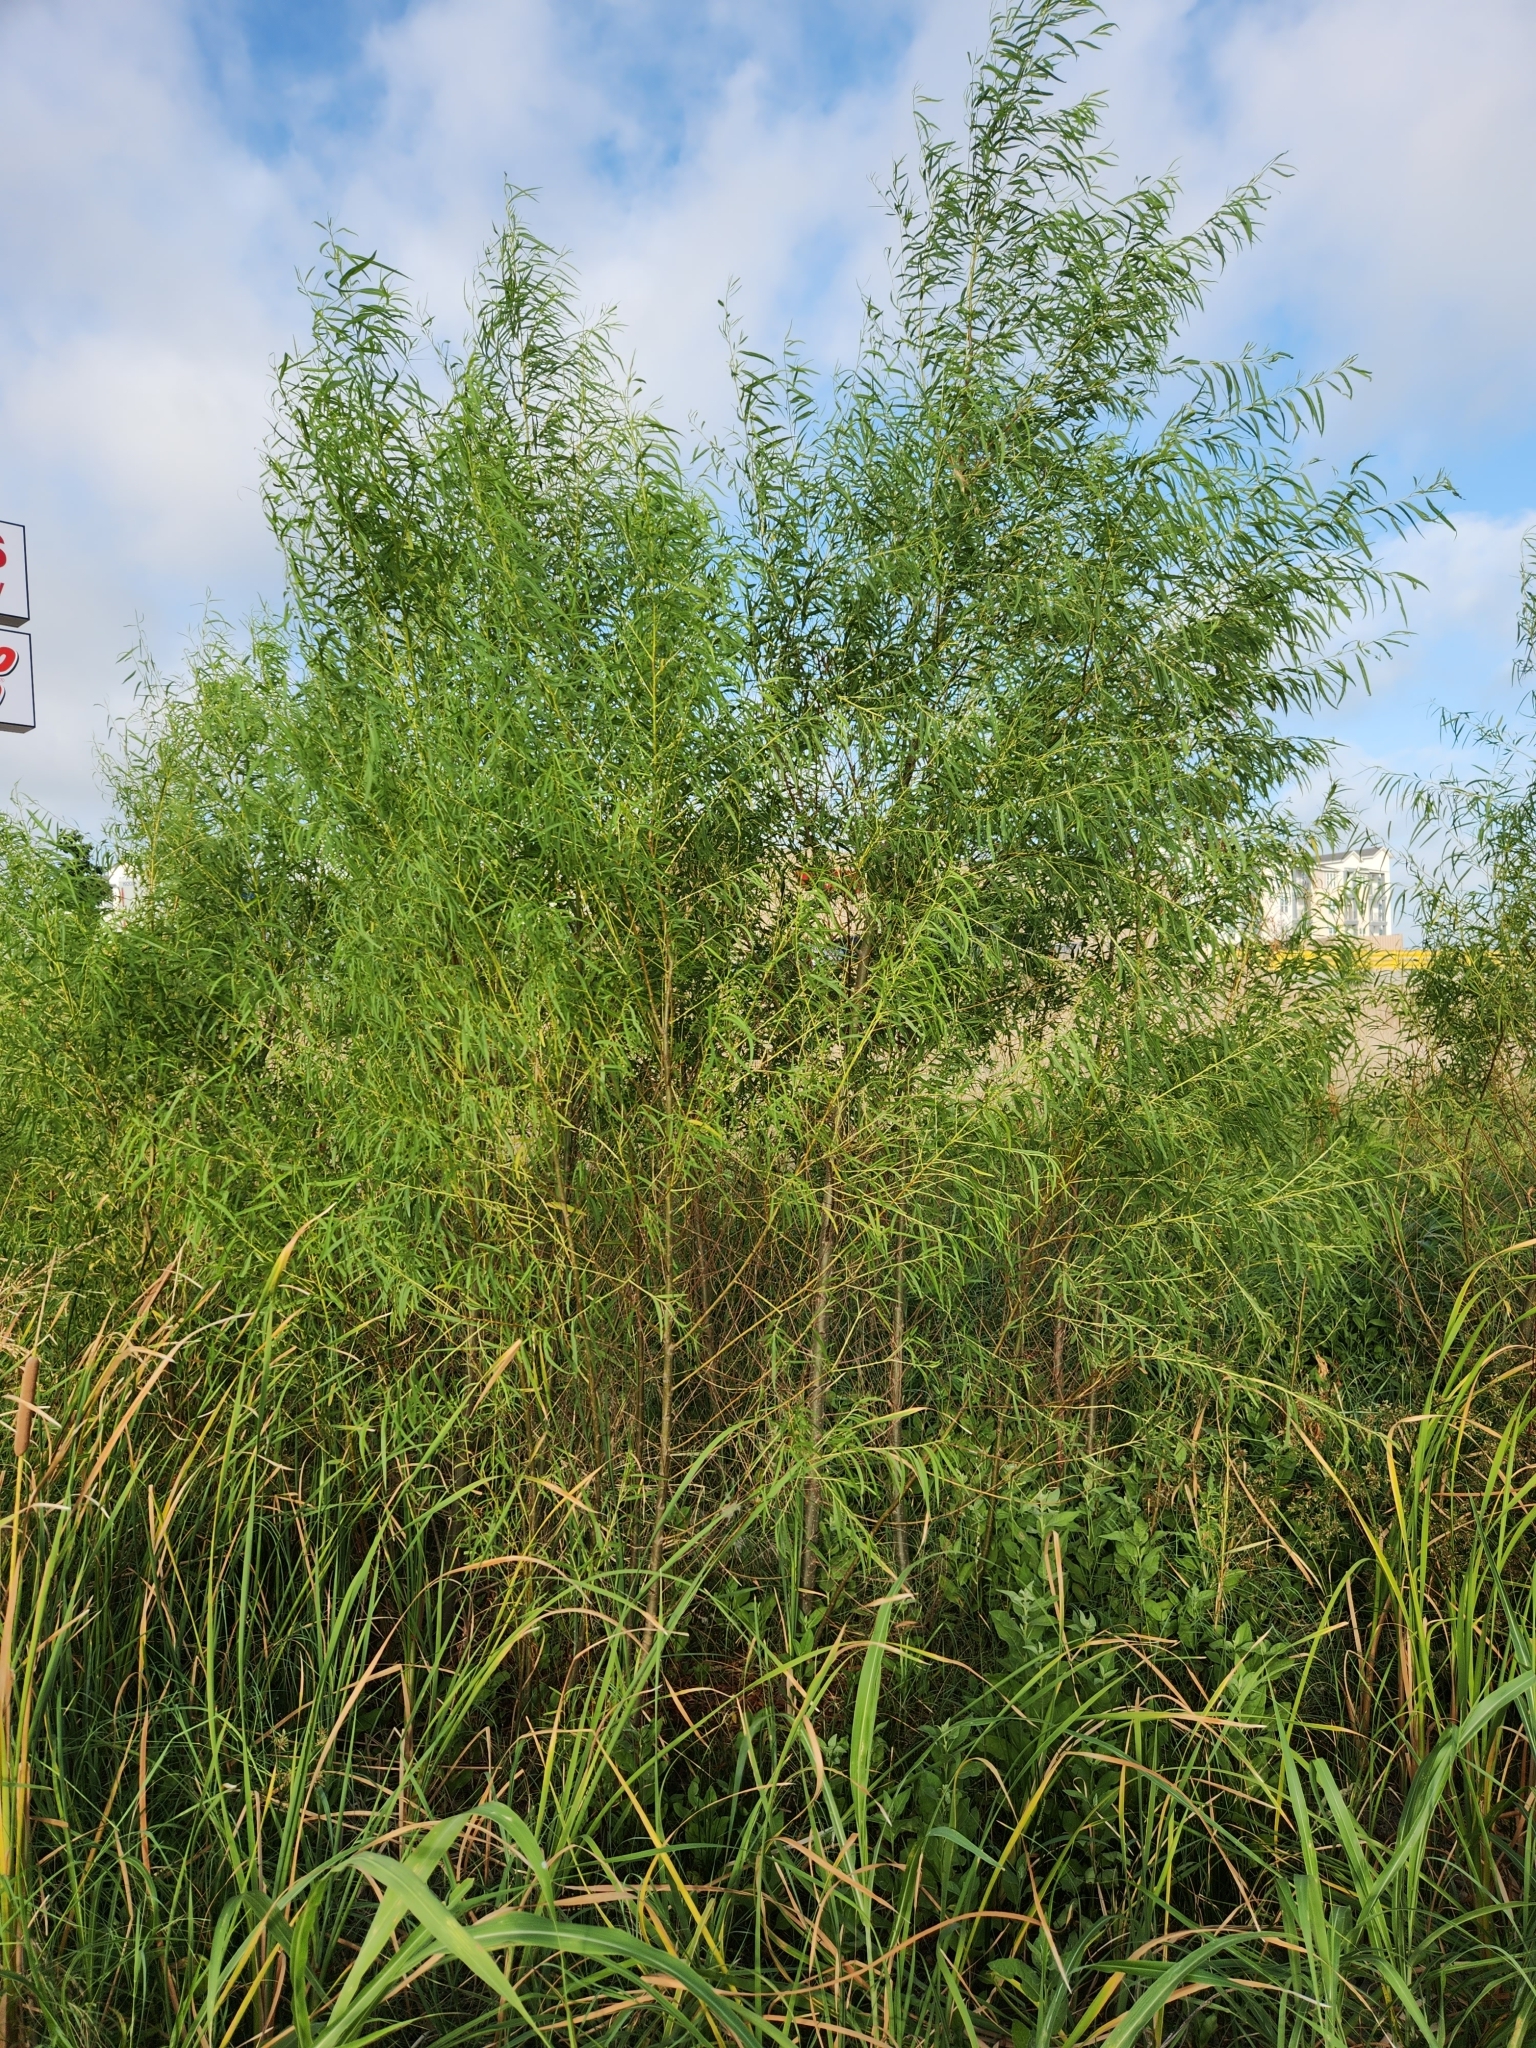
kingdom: Plantae
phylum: Tracheophyta
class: Magnoliopsida
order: Malpighiales
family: Salicaceae
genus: Salix
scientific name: Salix nigra
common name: Black willow
